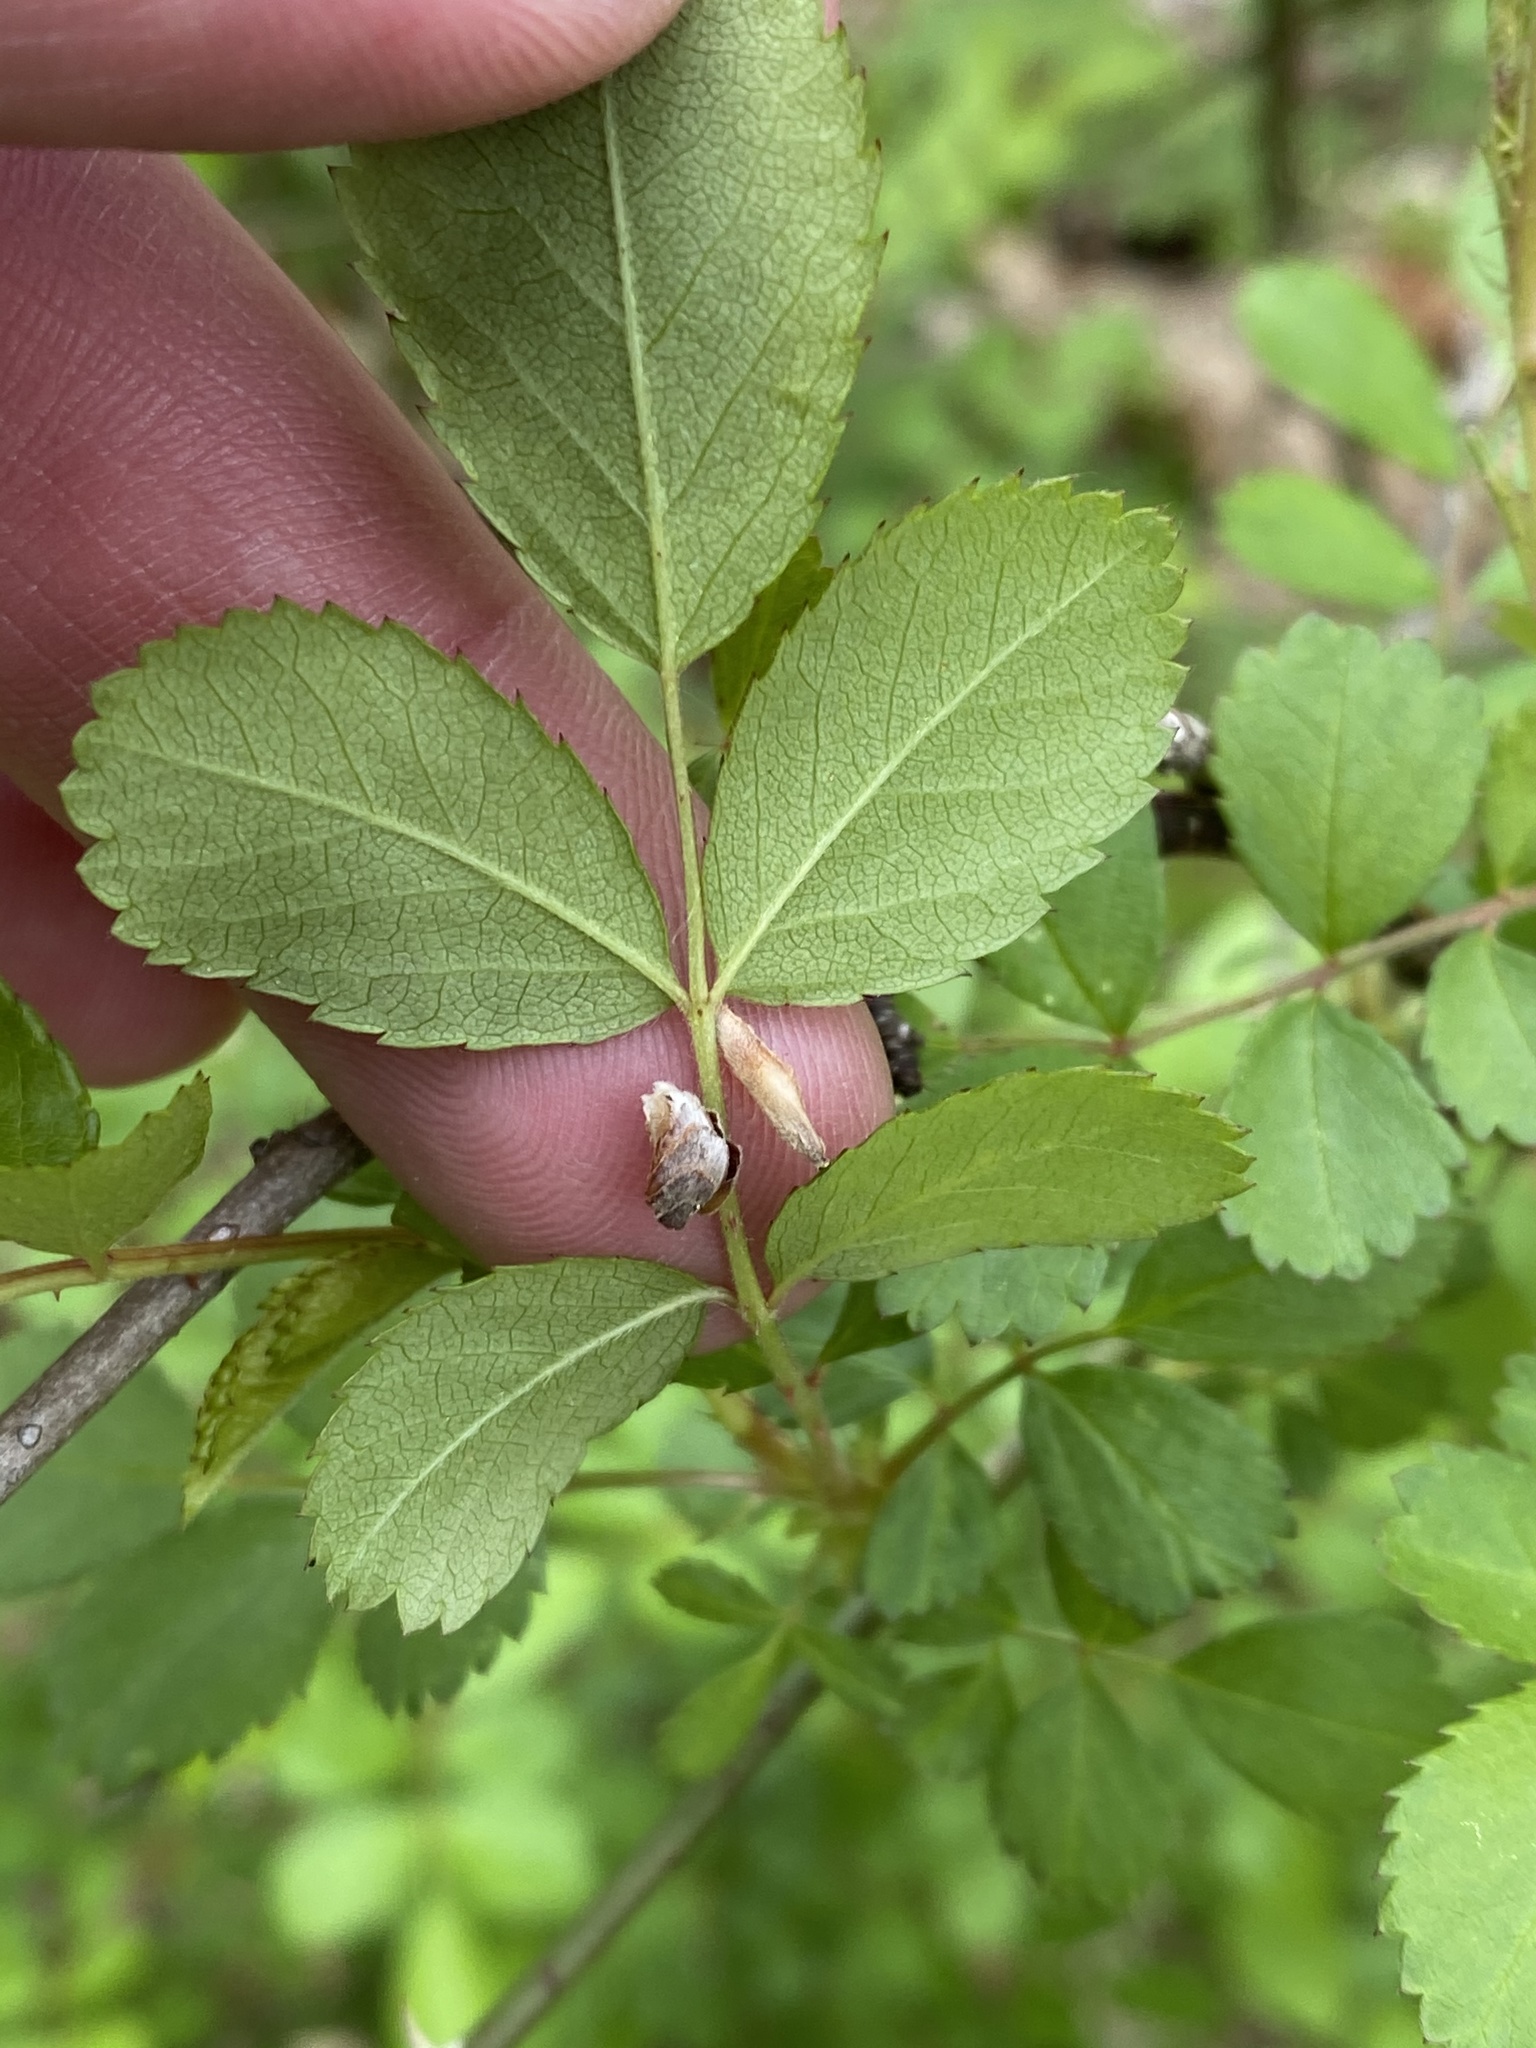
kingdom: Plantae
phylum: Tracheophyta
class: Magnoliopsida
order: Rosales
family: Rosaceae
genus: Rosa
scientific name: Rosa multiflora
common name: Multiflora rose
